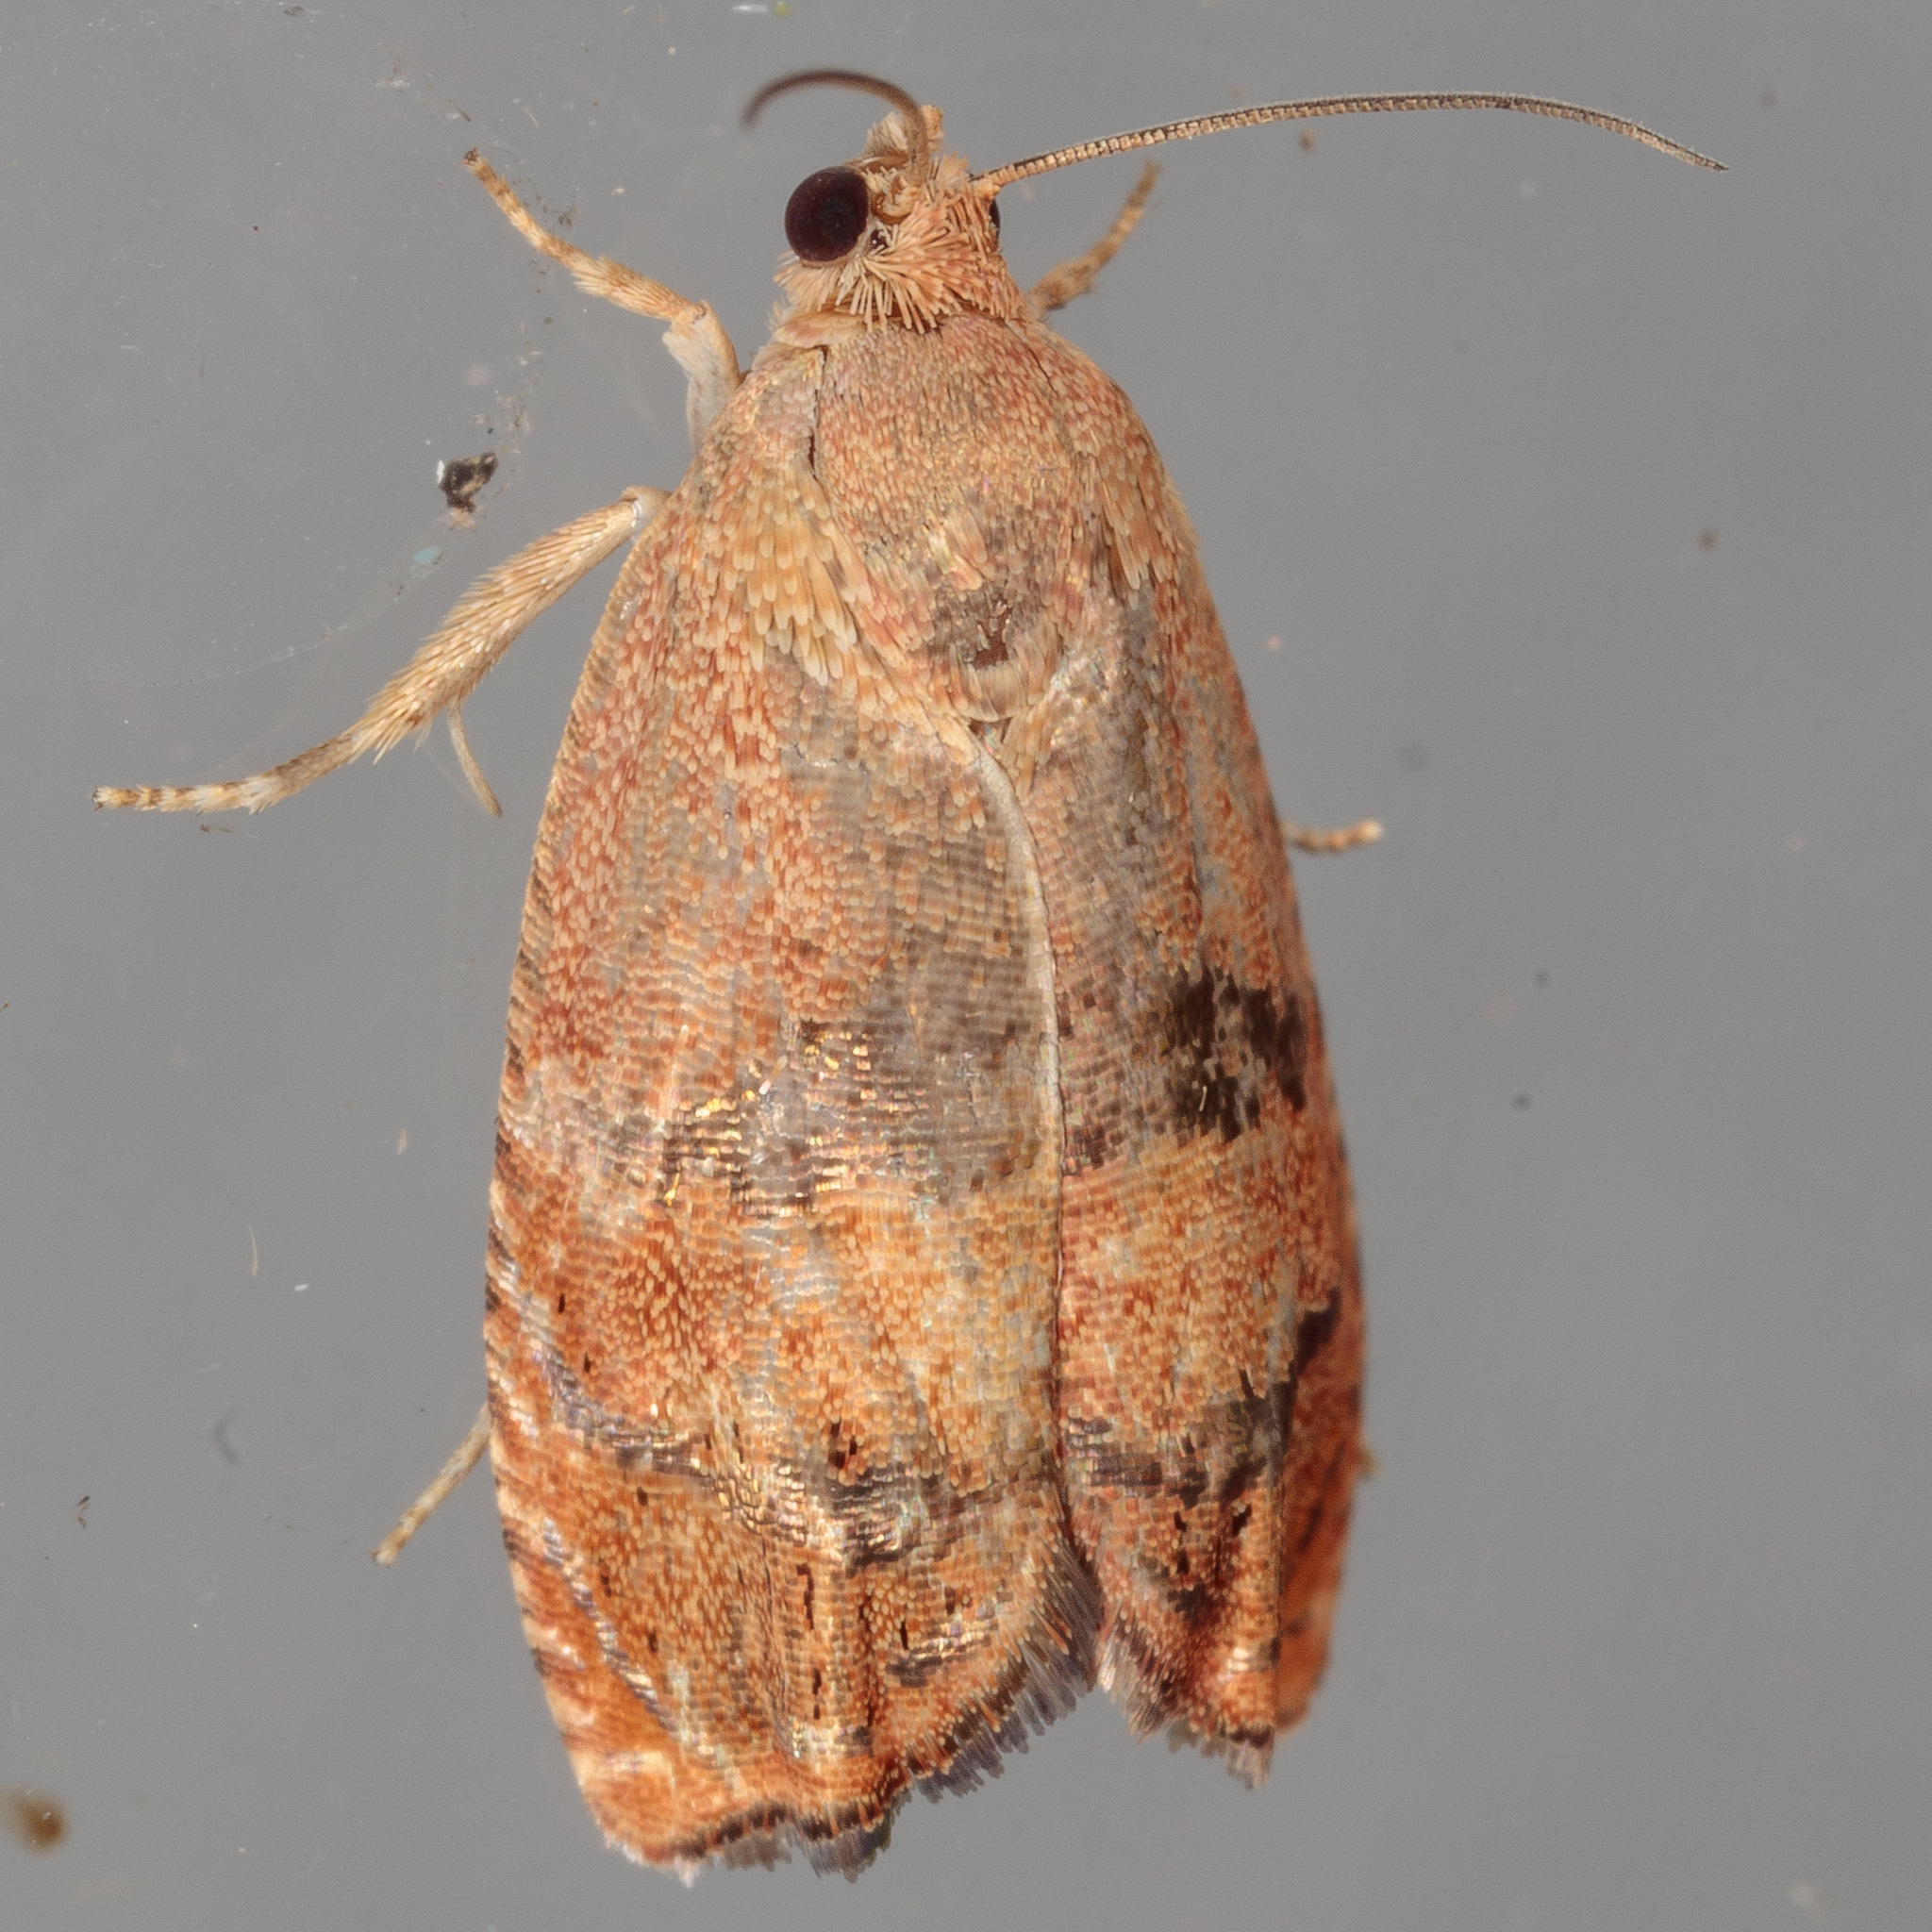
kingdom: Animalia
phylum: Arthropoda
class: Insecta
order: Lepidoptera
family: Tortricidae
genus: Cydia
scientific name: Cydia latiferreana
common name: Filbertworm moth
